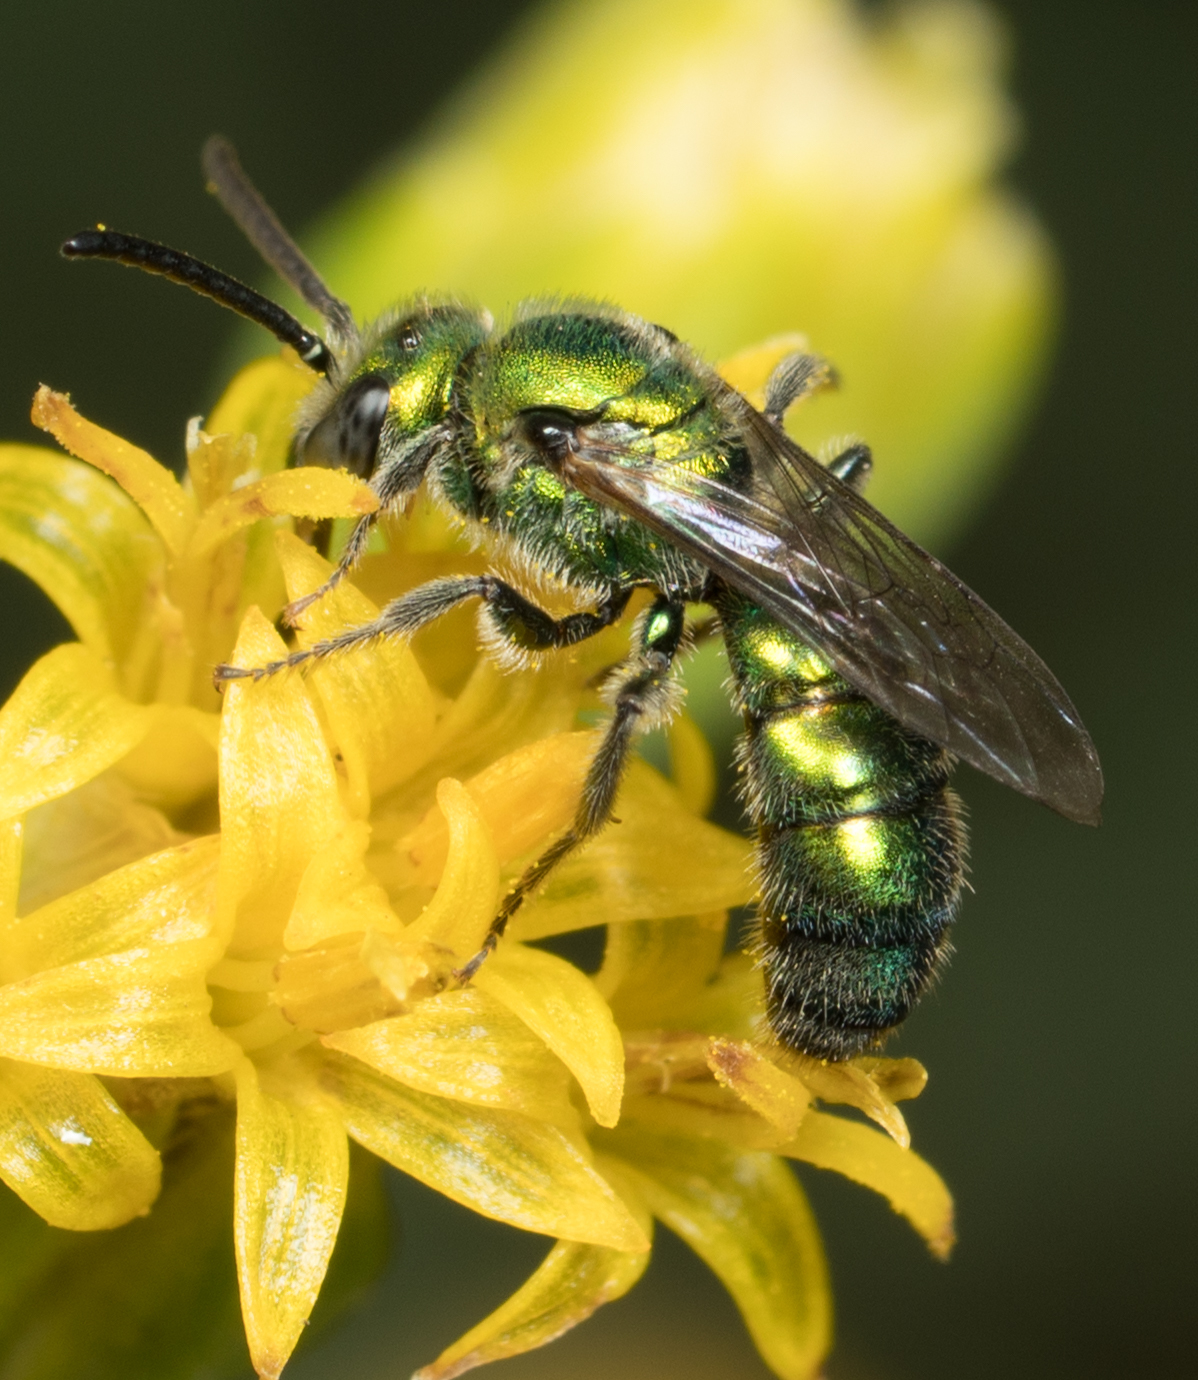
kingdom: Animalia
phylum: Arthropoda
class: Insecta
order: Hymenoptera
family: Halictidae
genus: Augochlorella
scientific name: Augochlorella pomoniella
